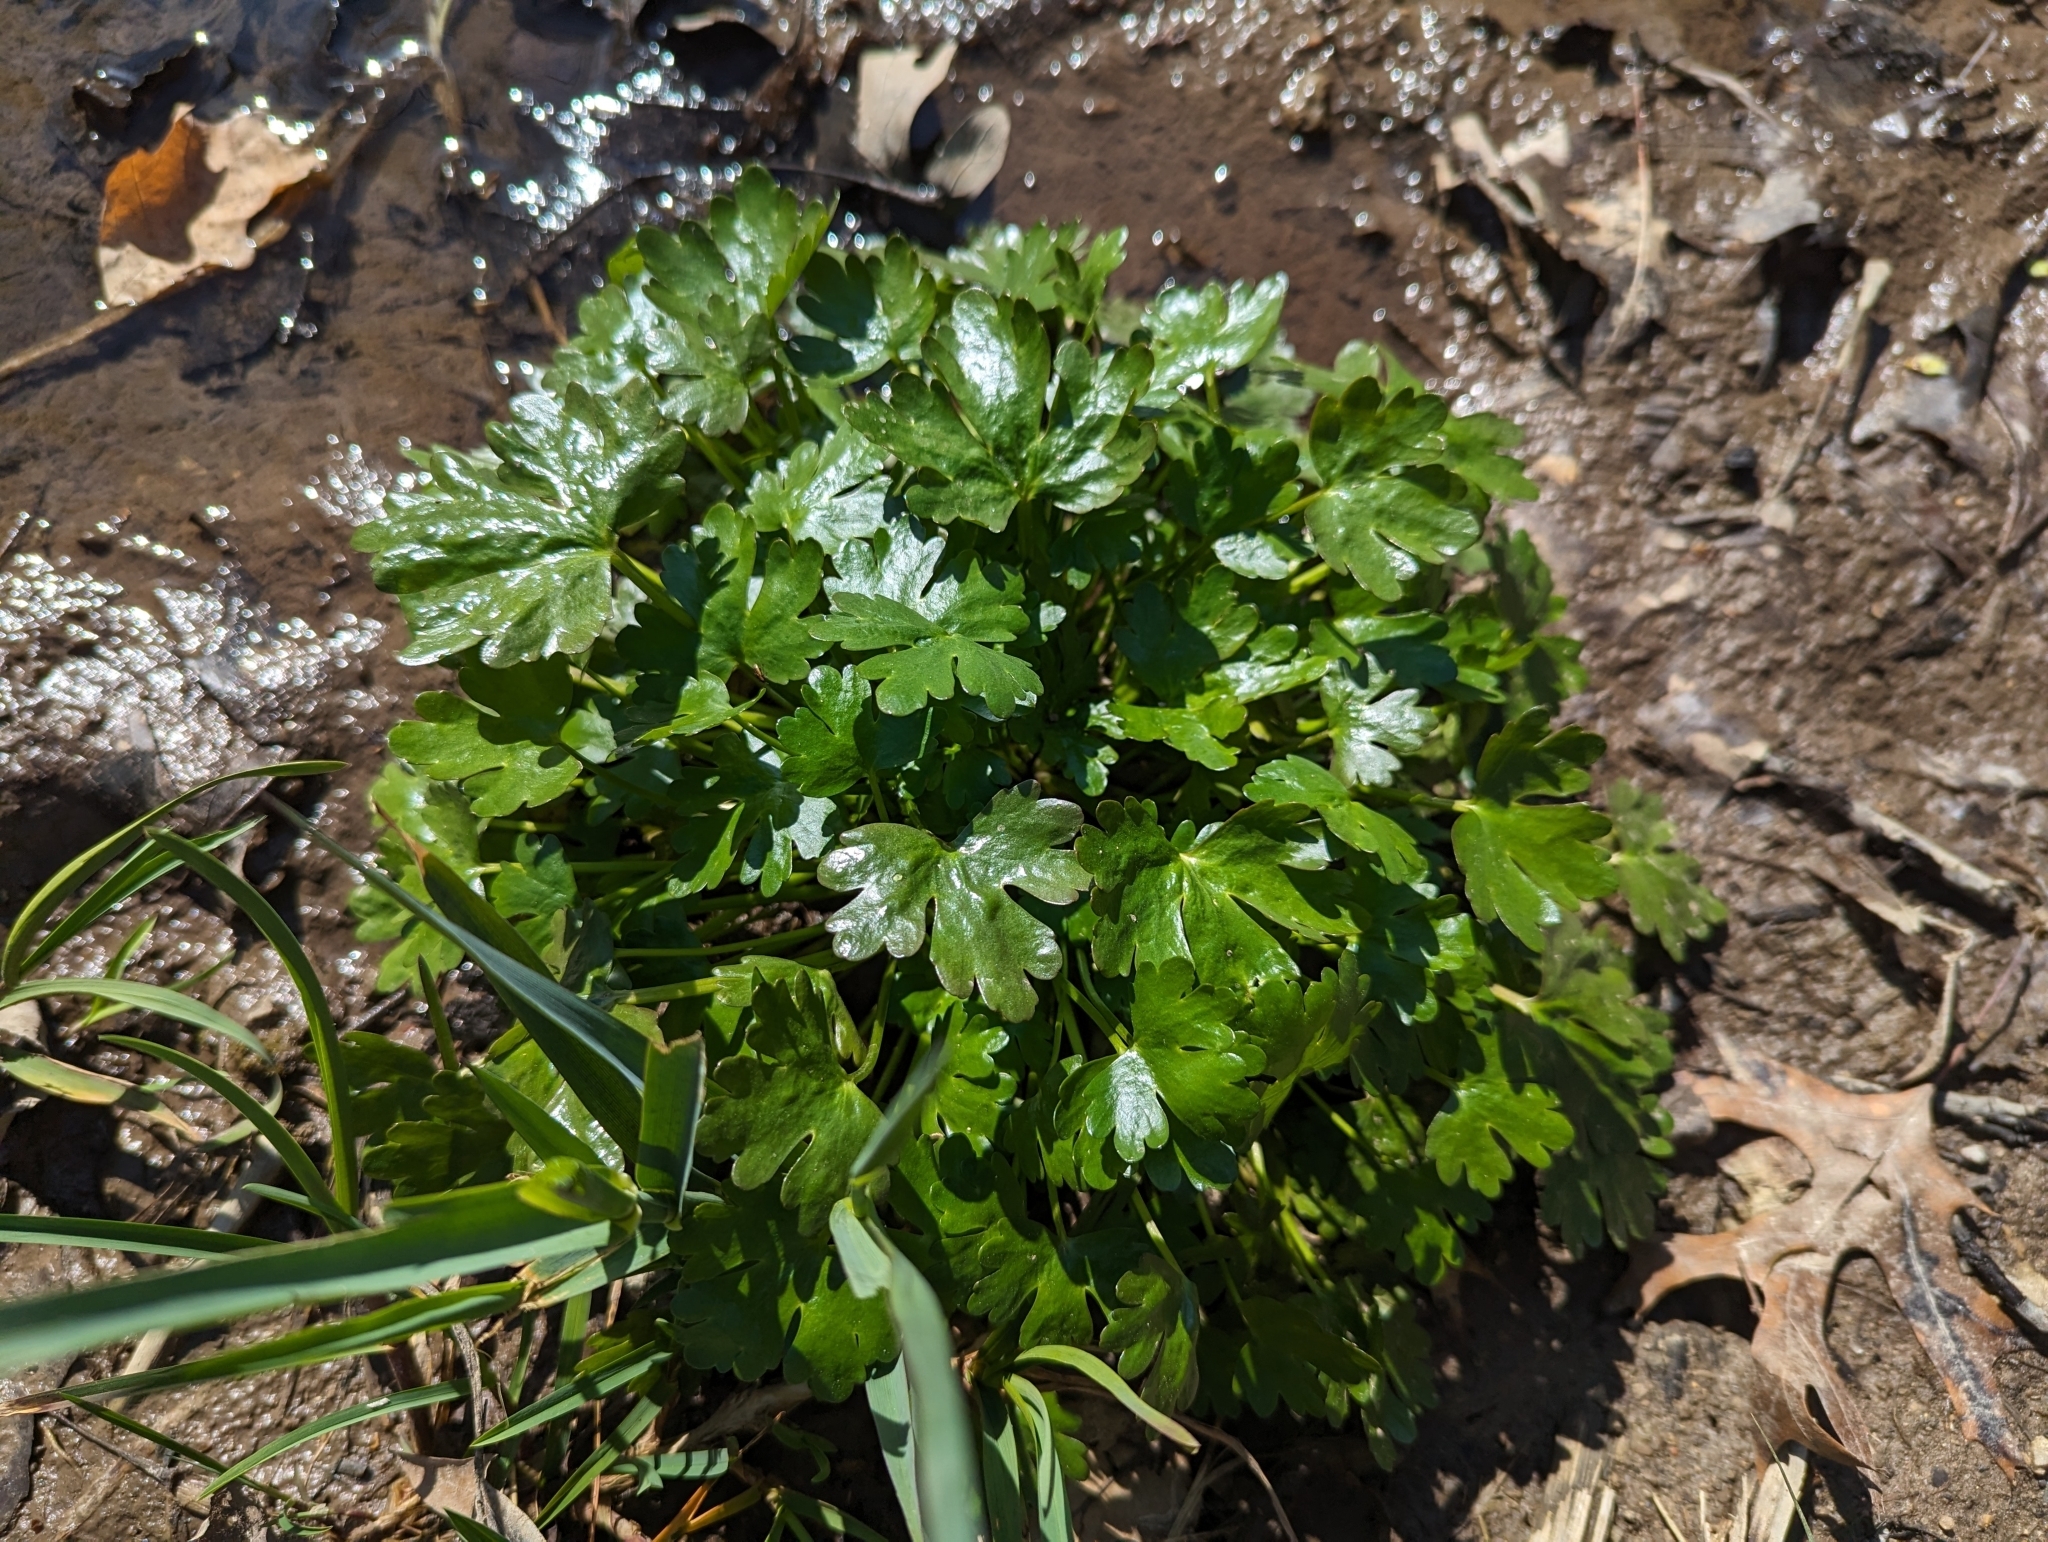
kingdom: Plantae
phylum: Tracheophyta
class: Magnoliopsida
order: Ranunculales
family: Ranunculaceae
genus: Ranunculus
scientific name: Ranunculus sceleratus
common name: Celery-leaved buttercup
